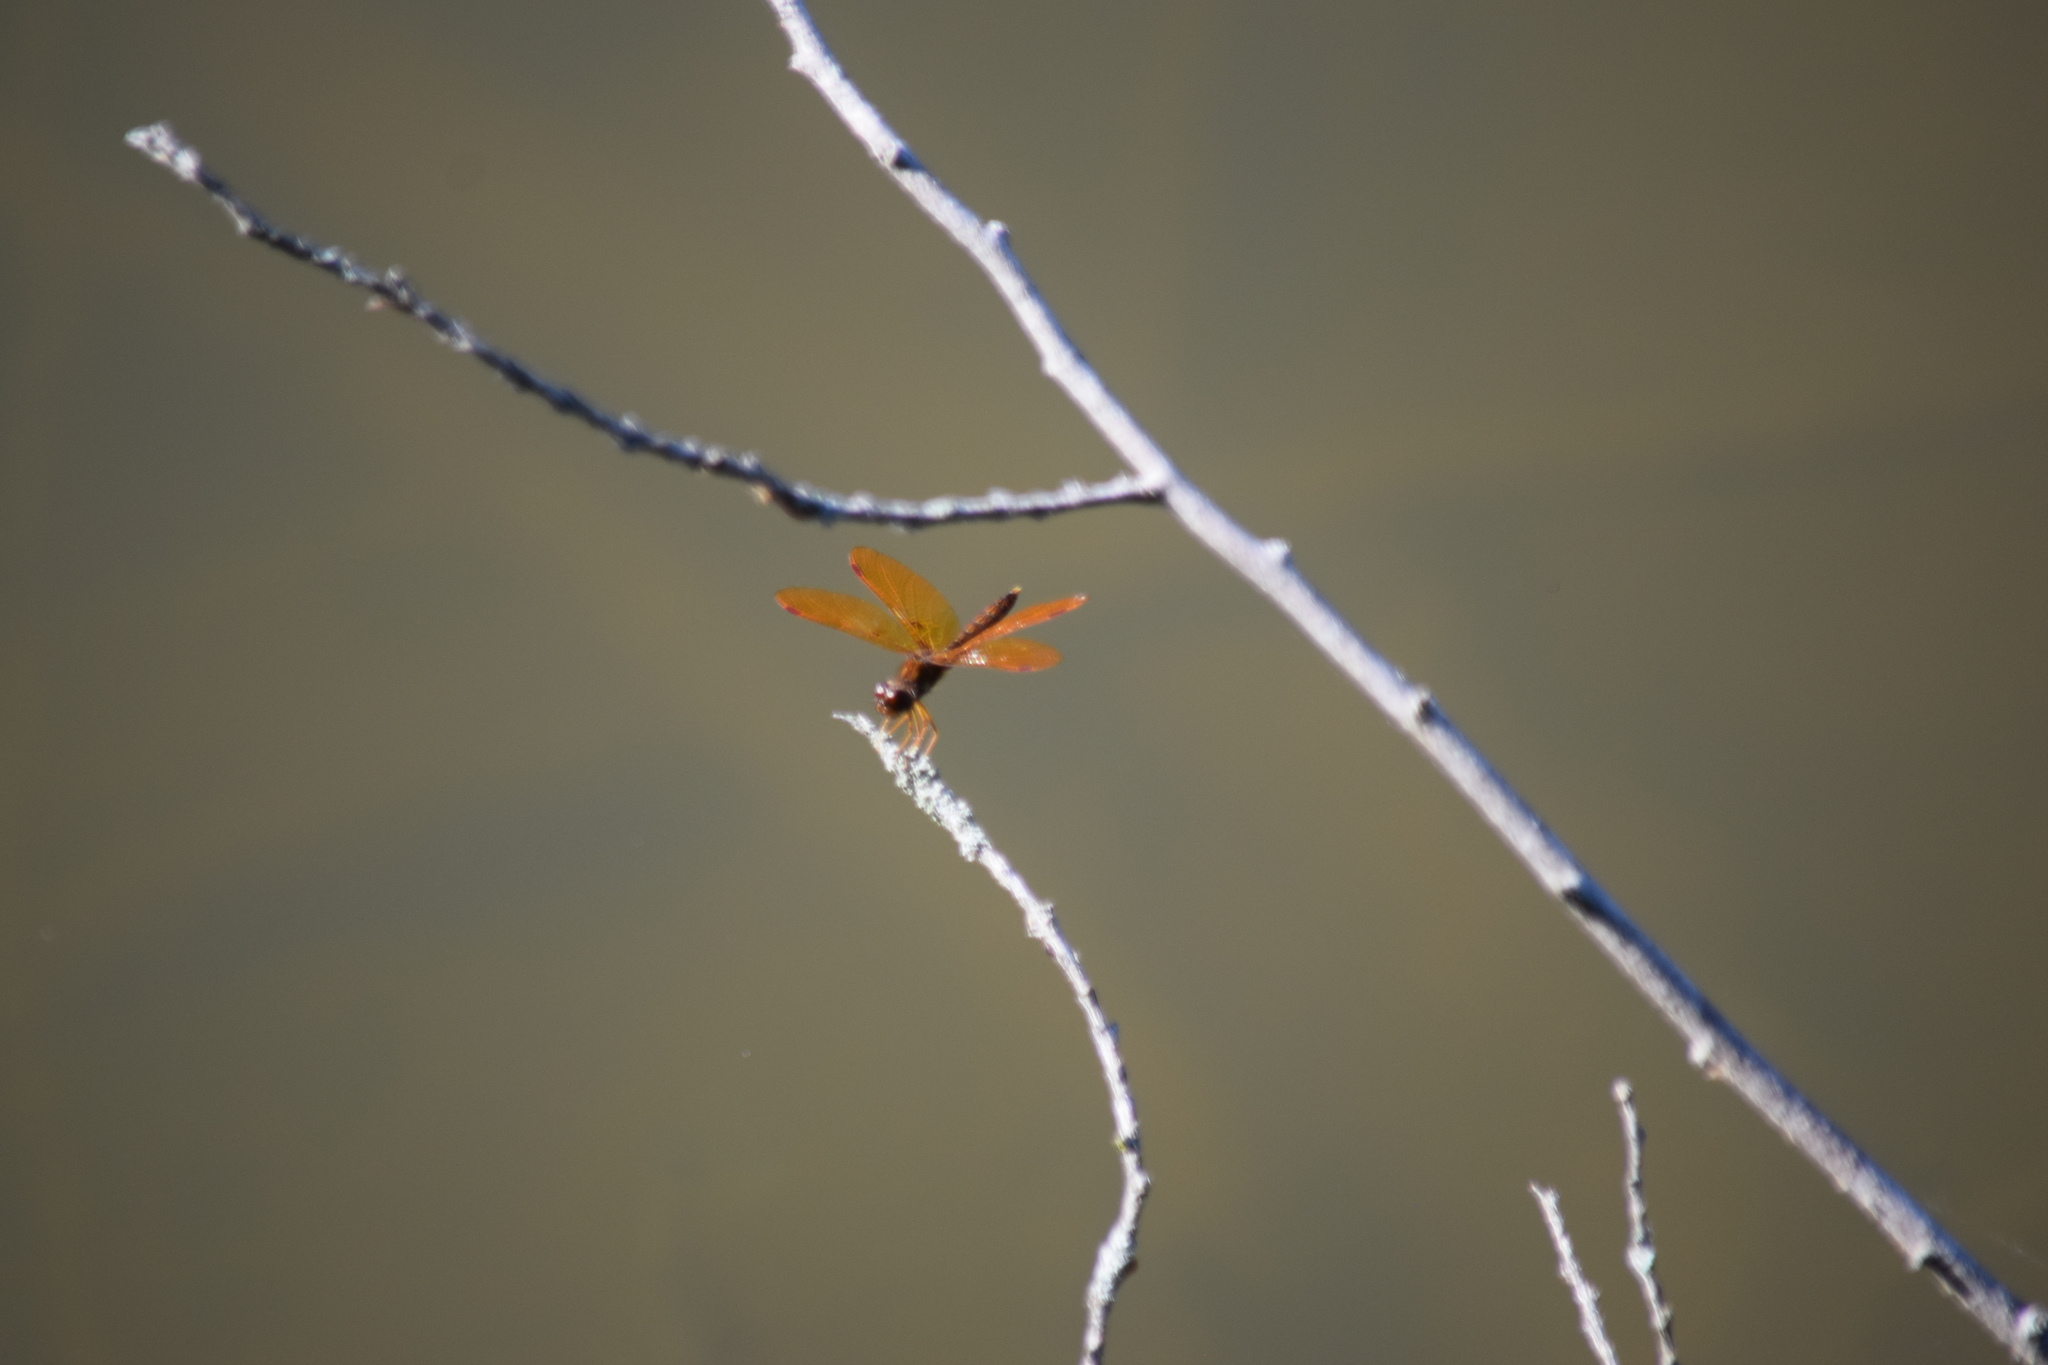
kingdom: Animalia
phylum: Arthropoda
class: Insecta
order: Odonata
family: Libellulidae
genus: Perithemis
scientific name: Perithemis tenera
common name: Eastern amberwing
